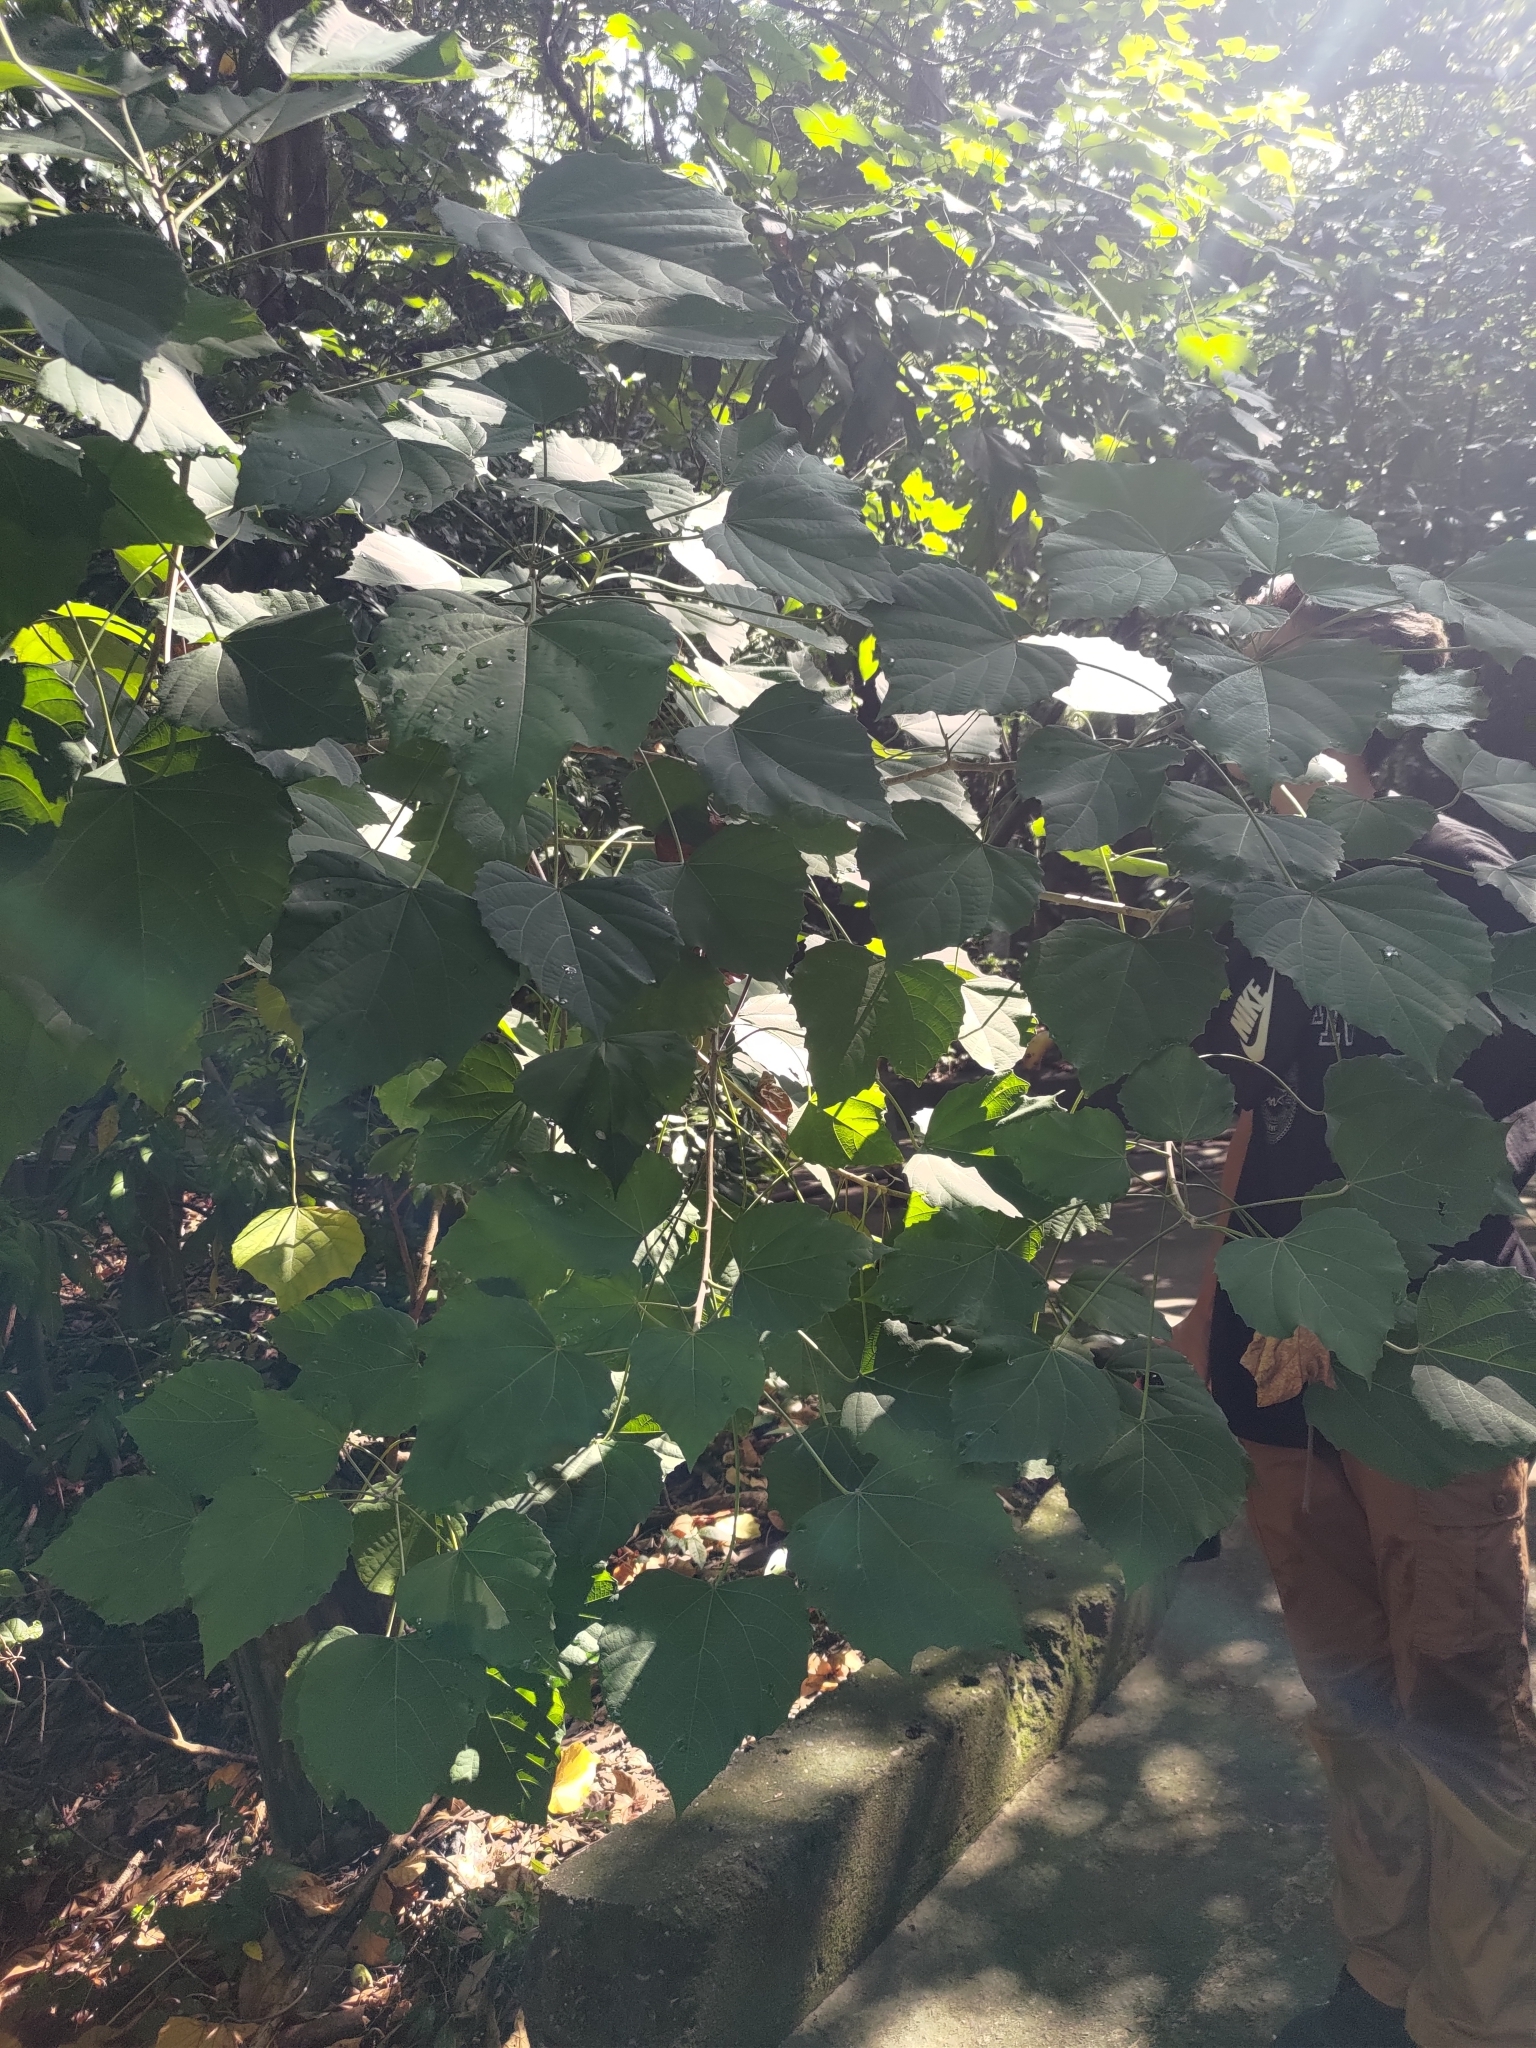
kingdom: Plantae
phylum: Tracheophyta
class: Magnoliopsida
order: Malpighiales
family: Euphorbiaceae
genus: Melanolepis
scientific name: Melanolepis multiglandulosa
